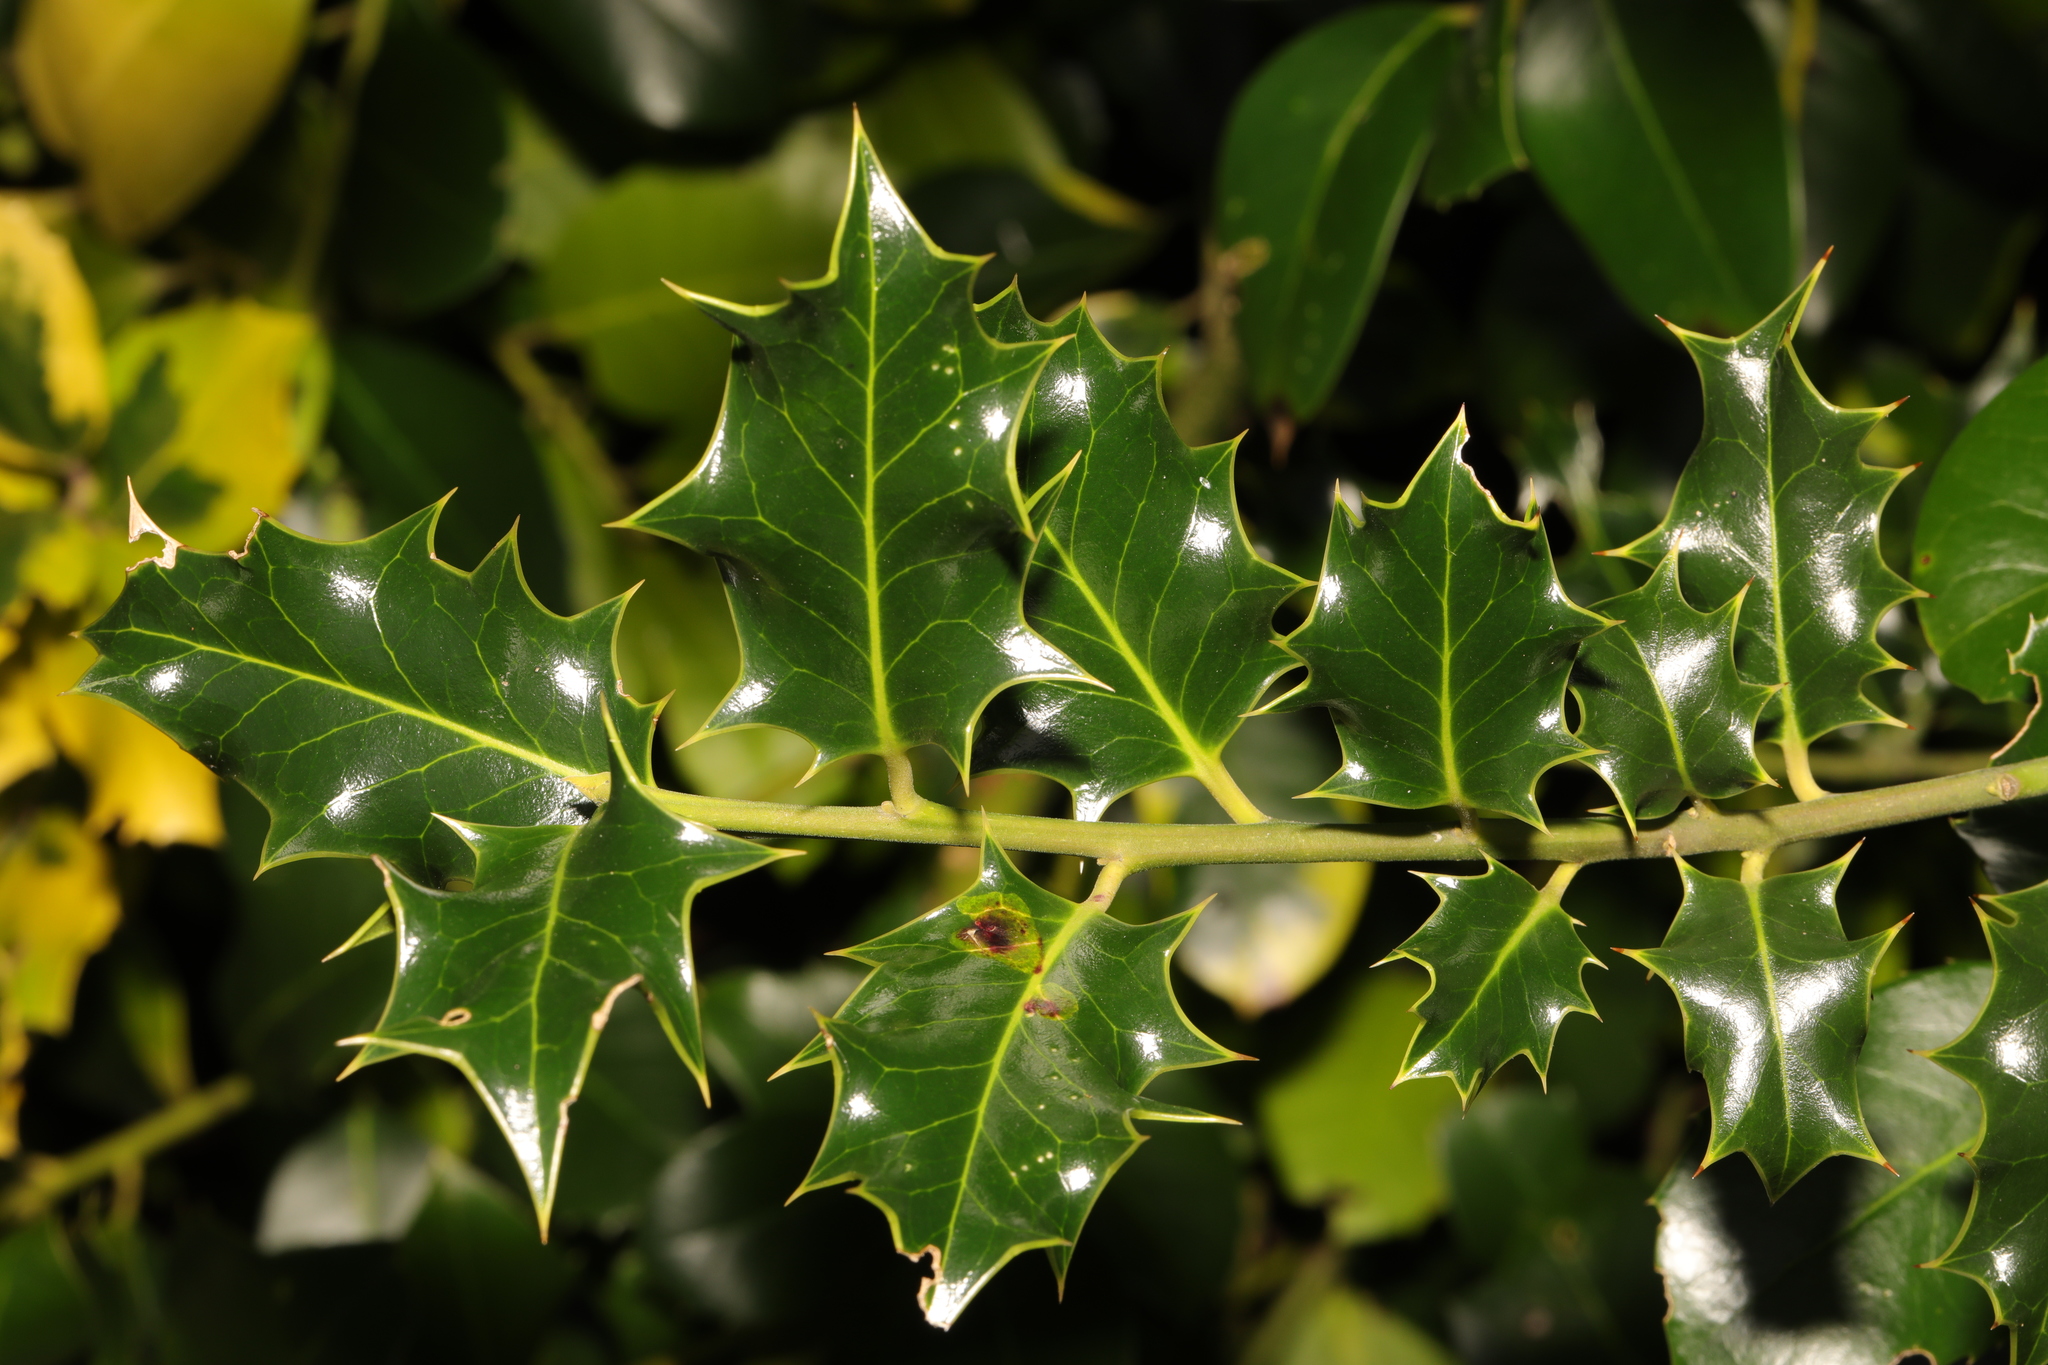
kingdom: Plantae
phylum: Tracheophyta
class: Magnoliopsida
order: Aquifoliales
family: Aquifoliaceae
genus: Ilex
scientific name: Ilex aquifolium
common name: English holly
